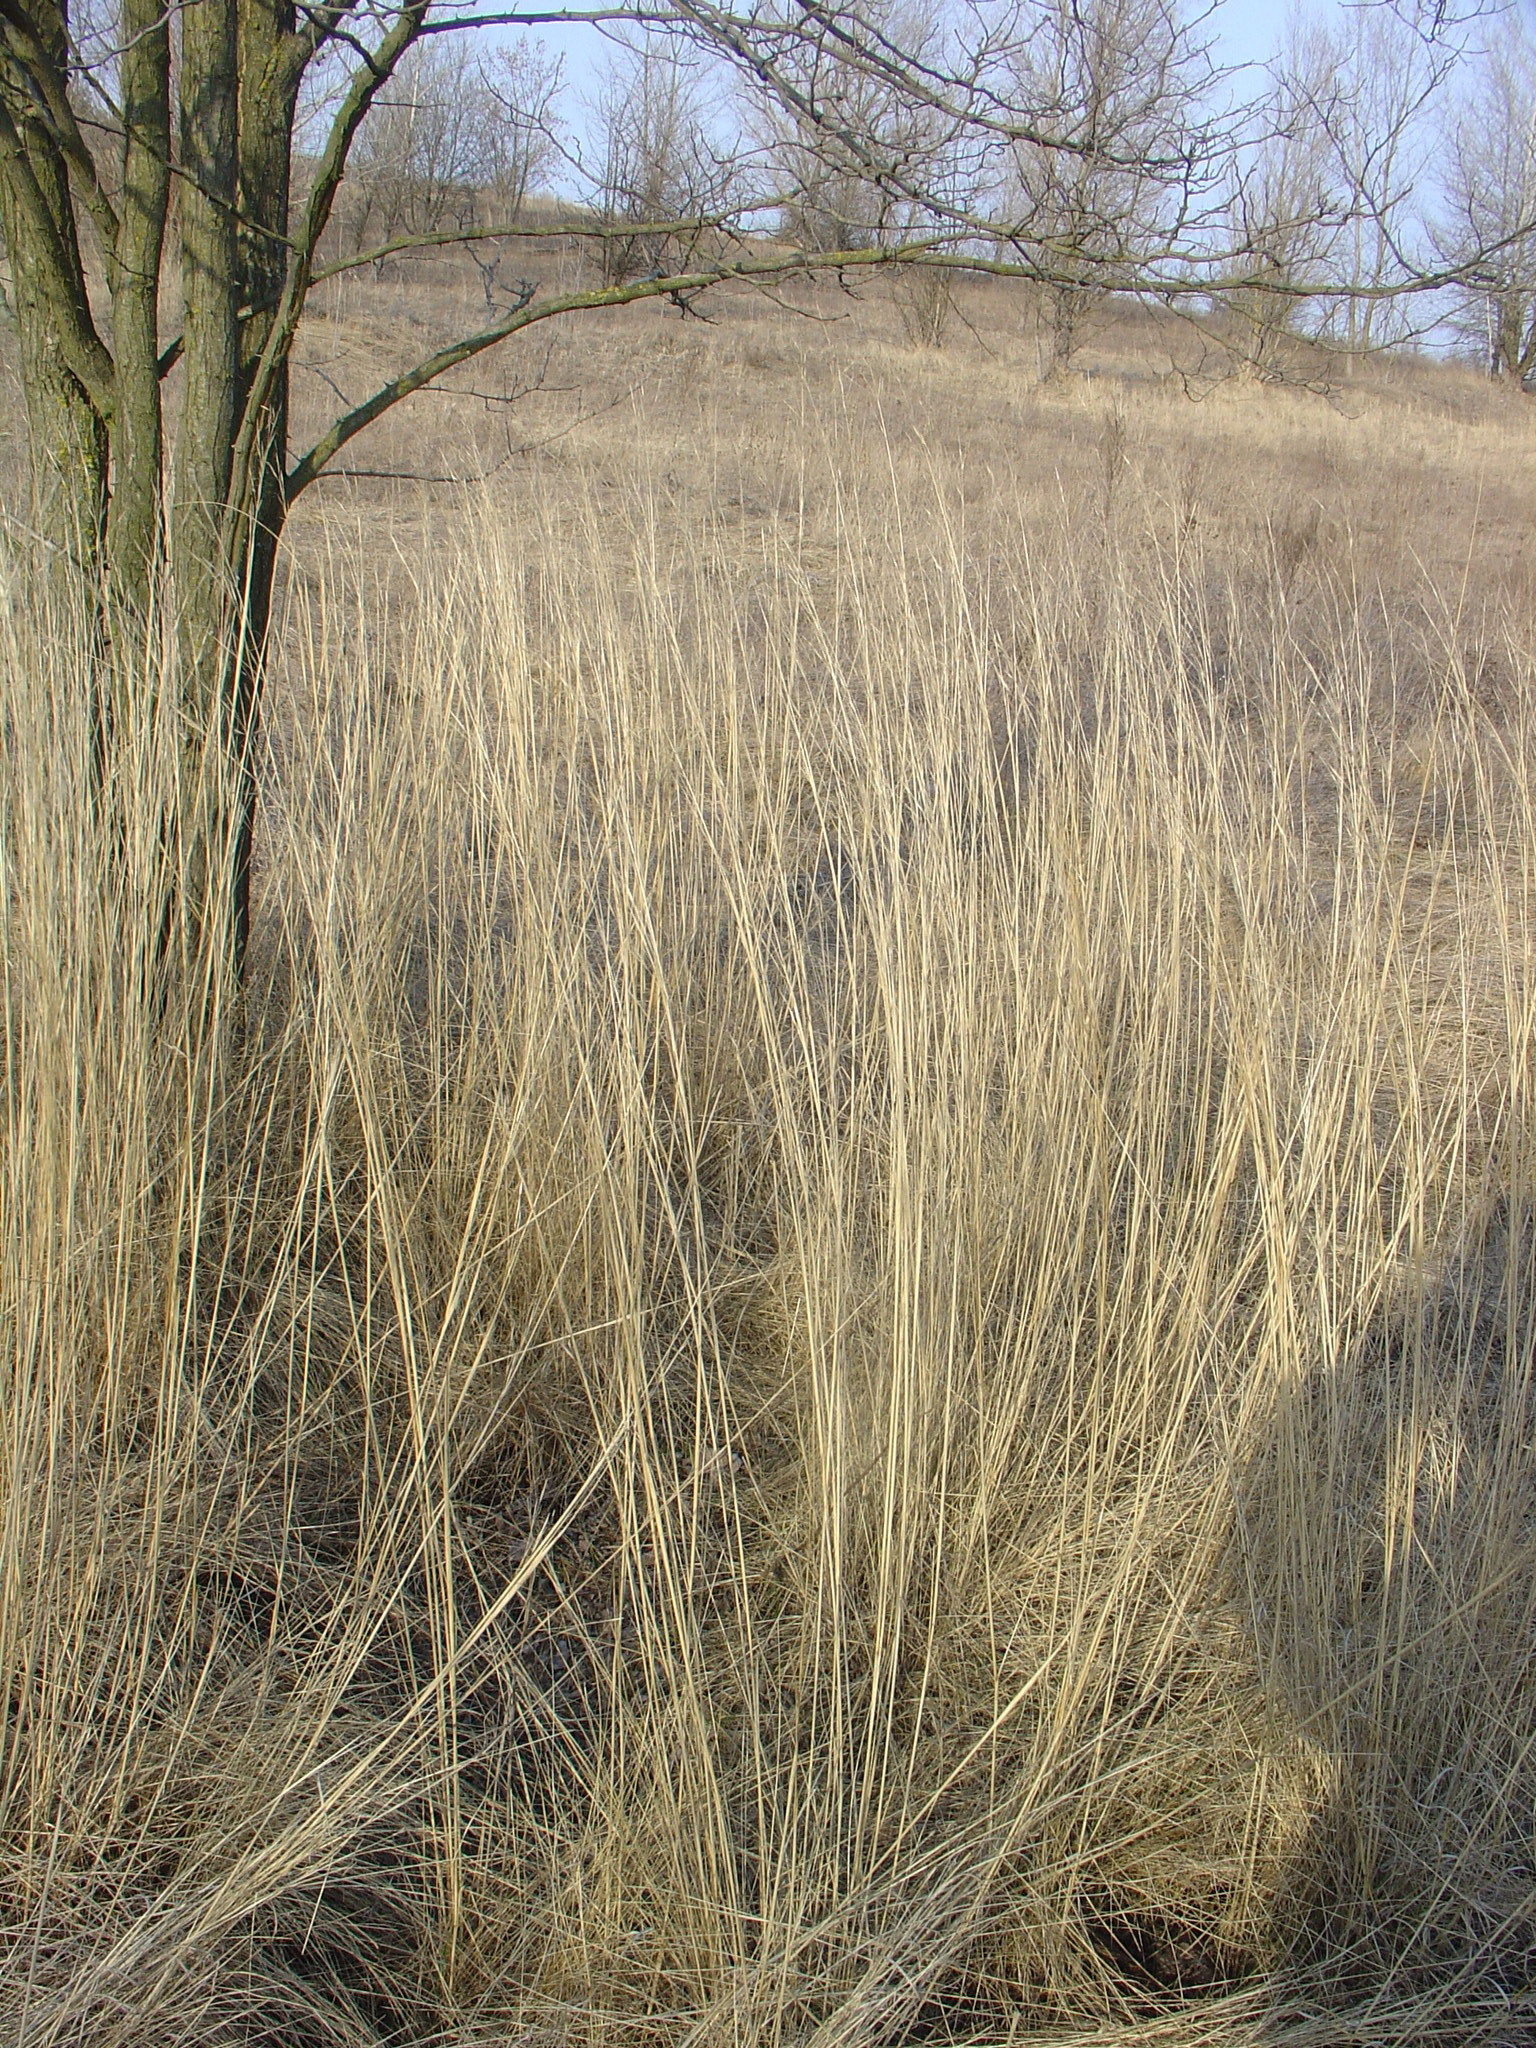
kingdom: Plantae
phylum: Tracheophyta
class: Liliopsida
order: Poales
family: Poaceae
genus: Stipa
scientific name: Stipa capillata
